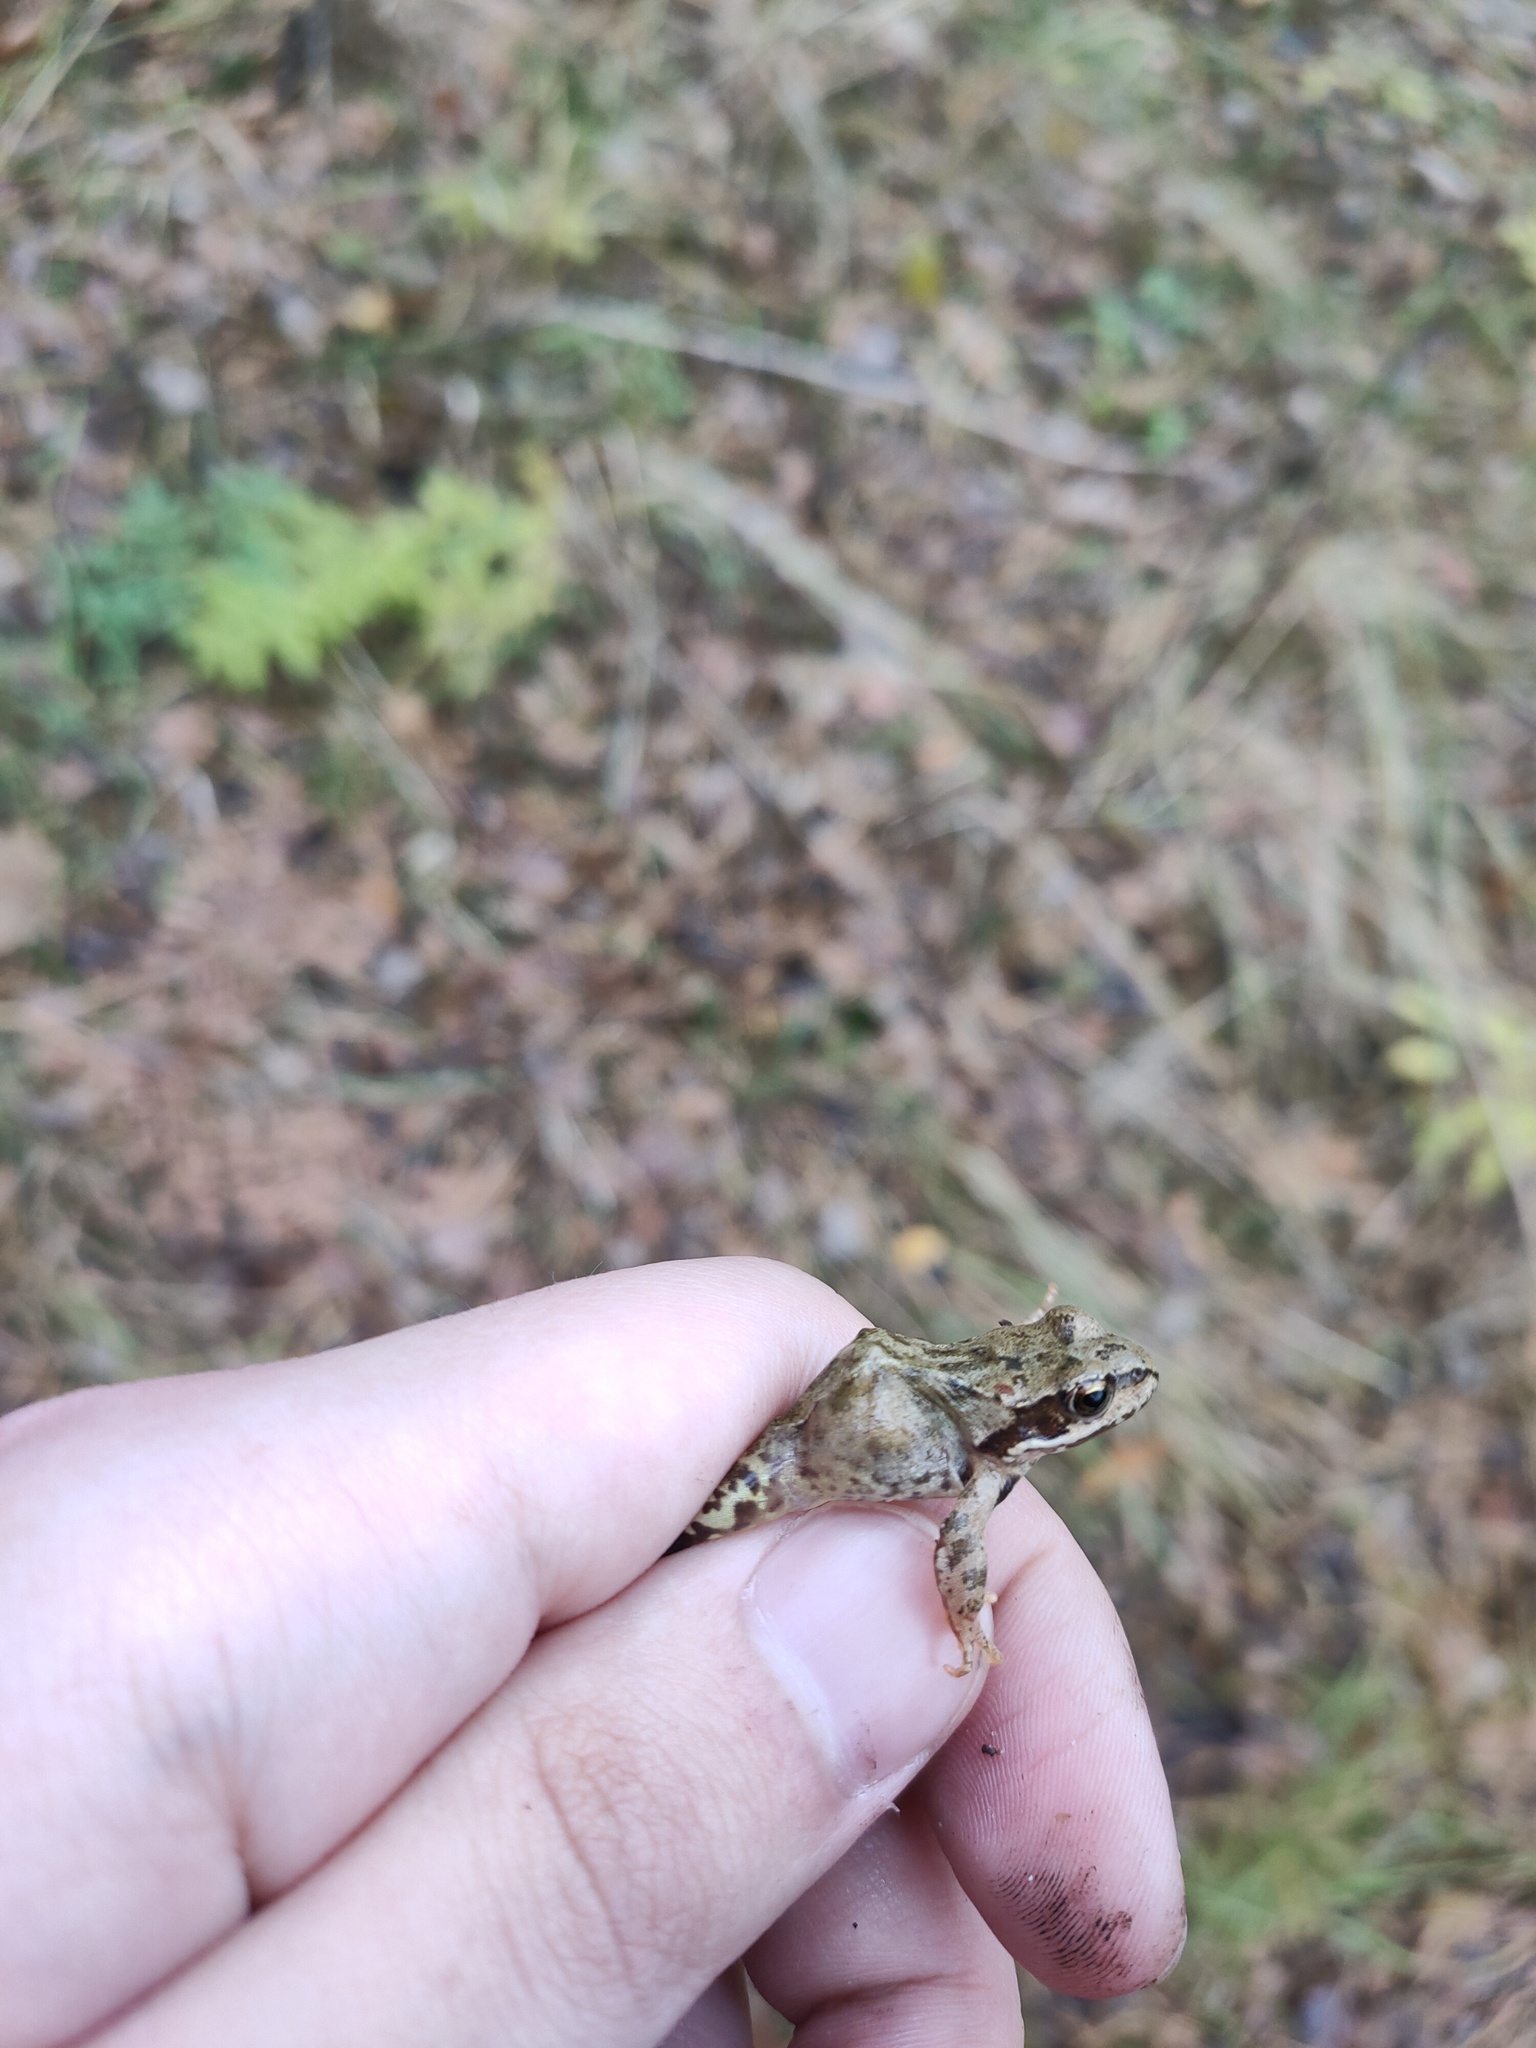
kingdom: Animalia
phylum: Chordata
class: Amphibia
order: Anura
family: Ranidae
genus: Rana
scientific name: Rana temporaria
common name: Common frog
